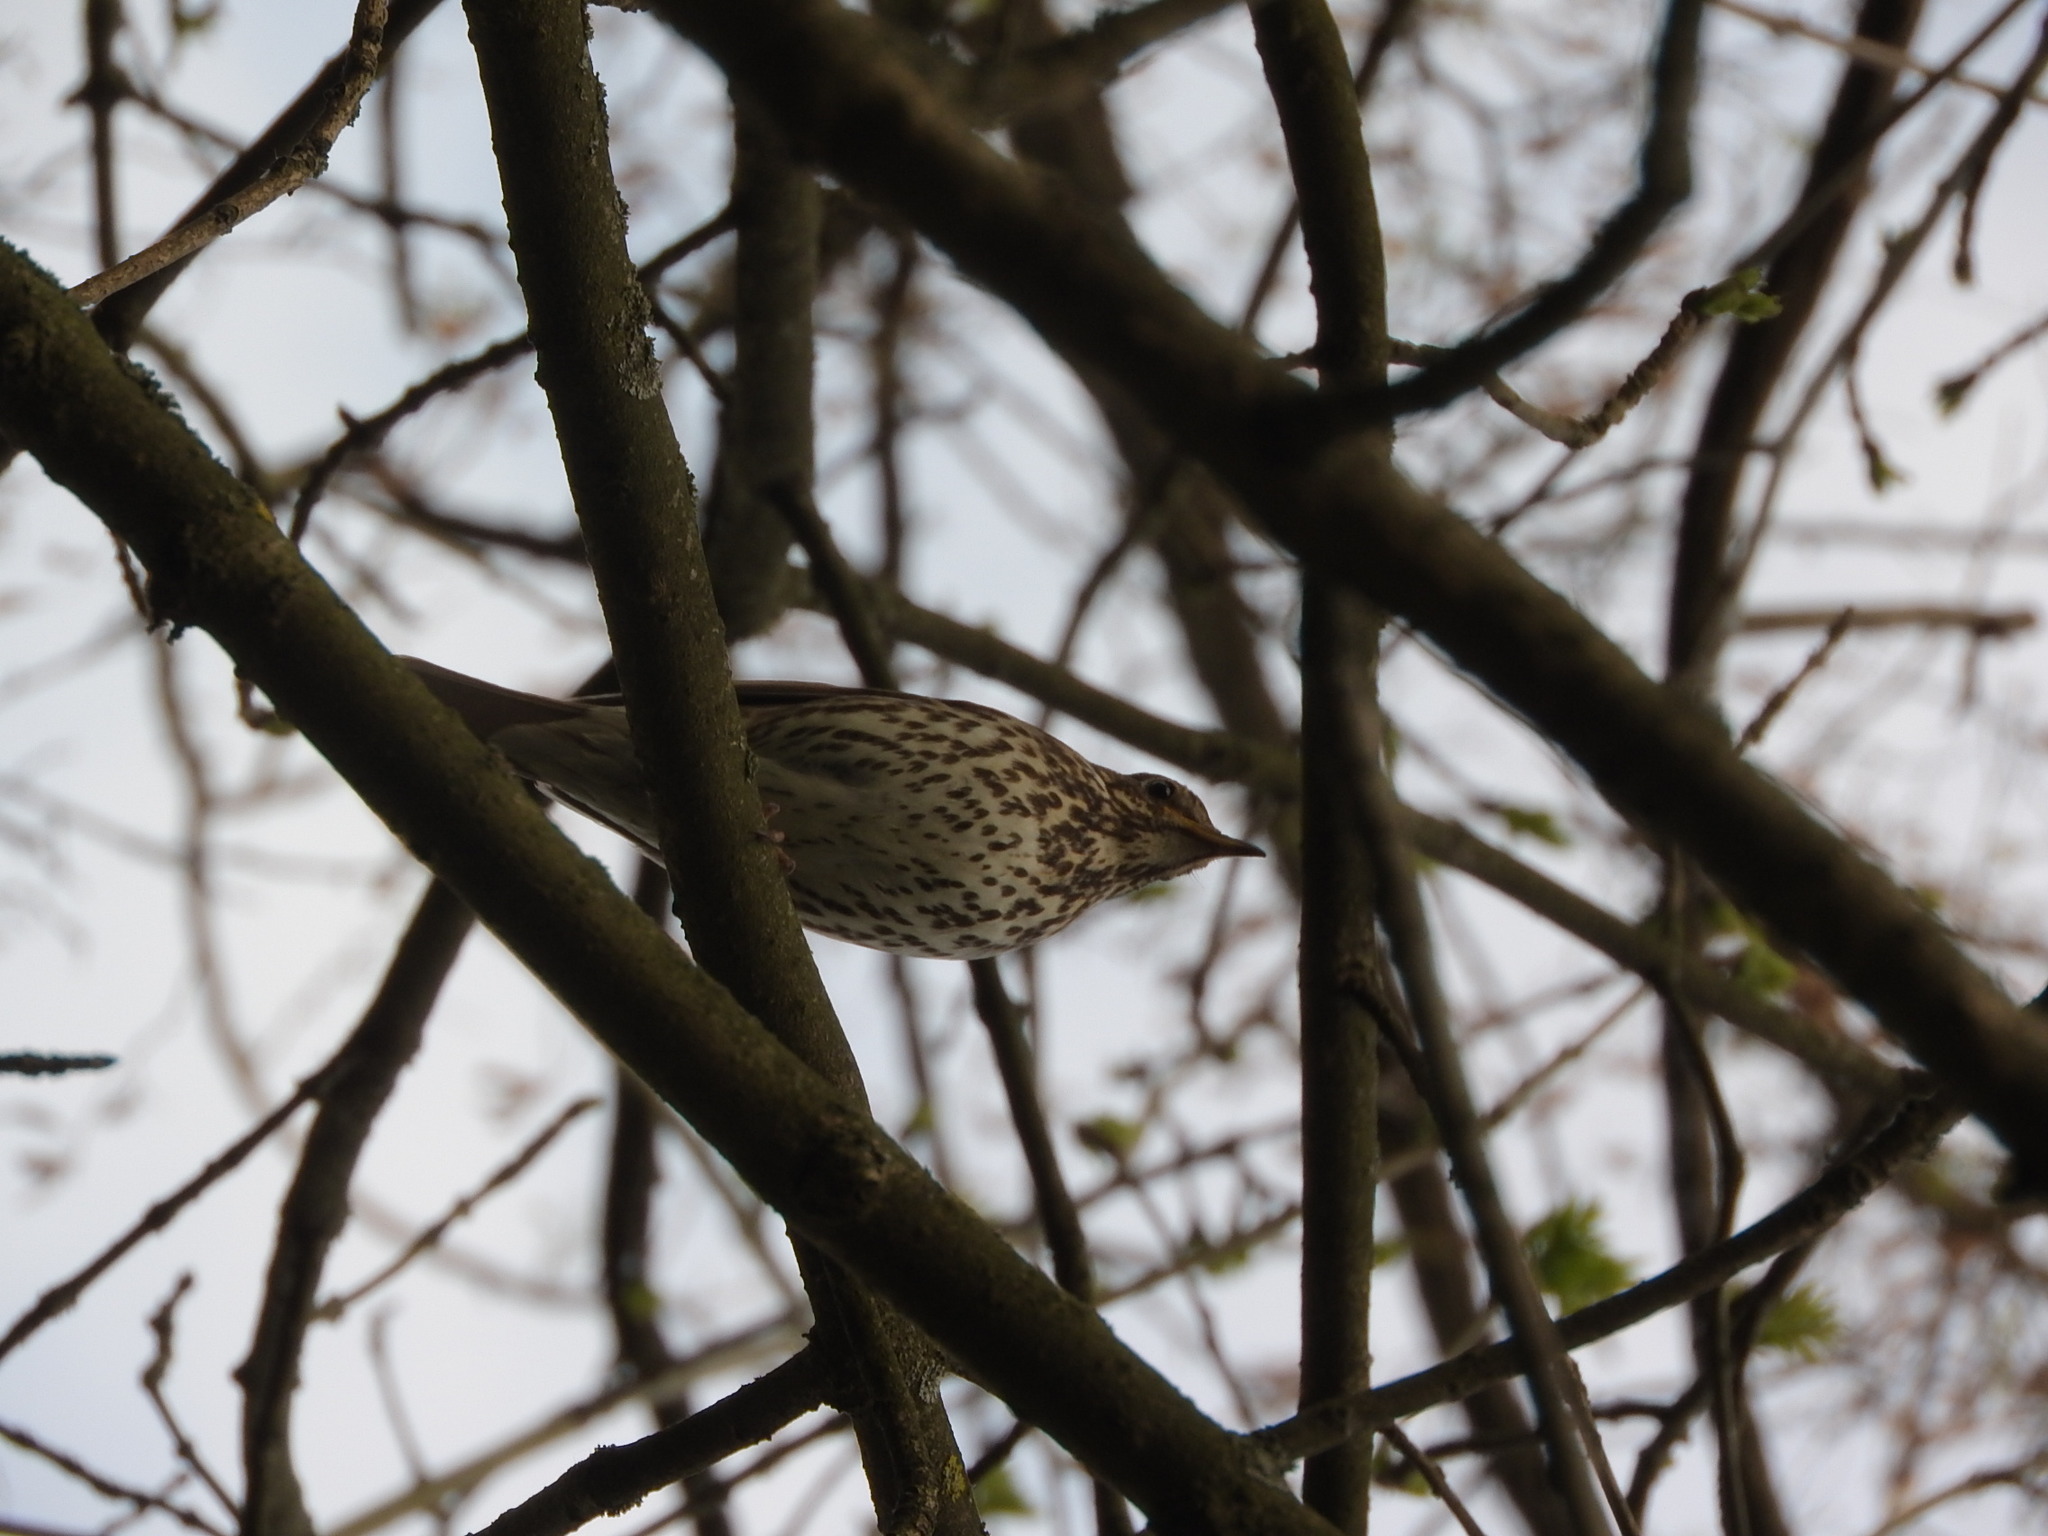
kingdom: Animalia
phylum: Chordata
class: Aves
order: Passeriformes
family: Turdidae
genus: Turdus
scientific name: Turdus philomelos
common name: Song thrush
